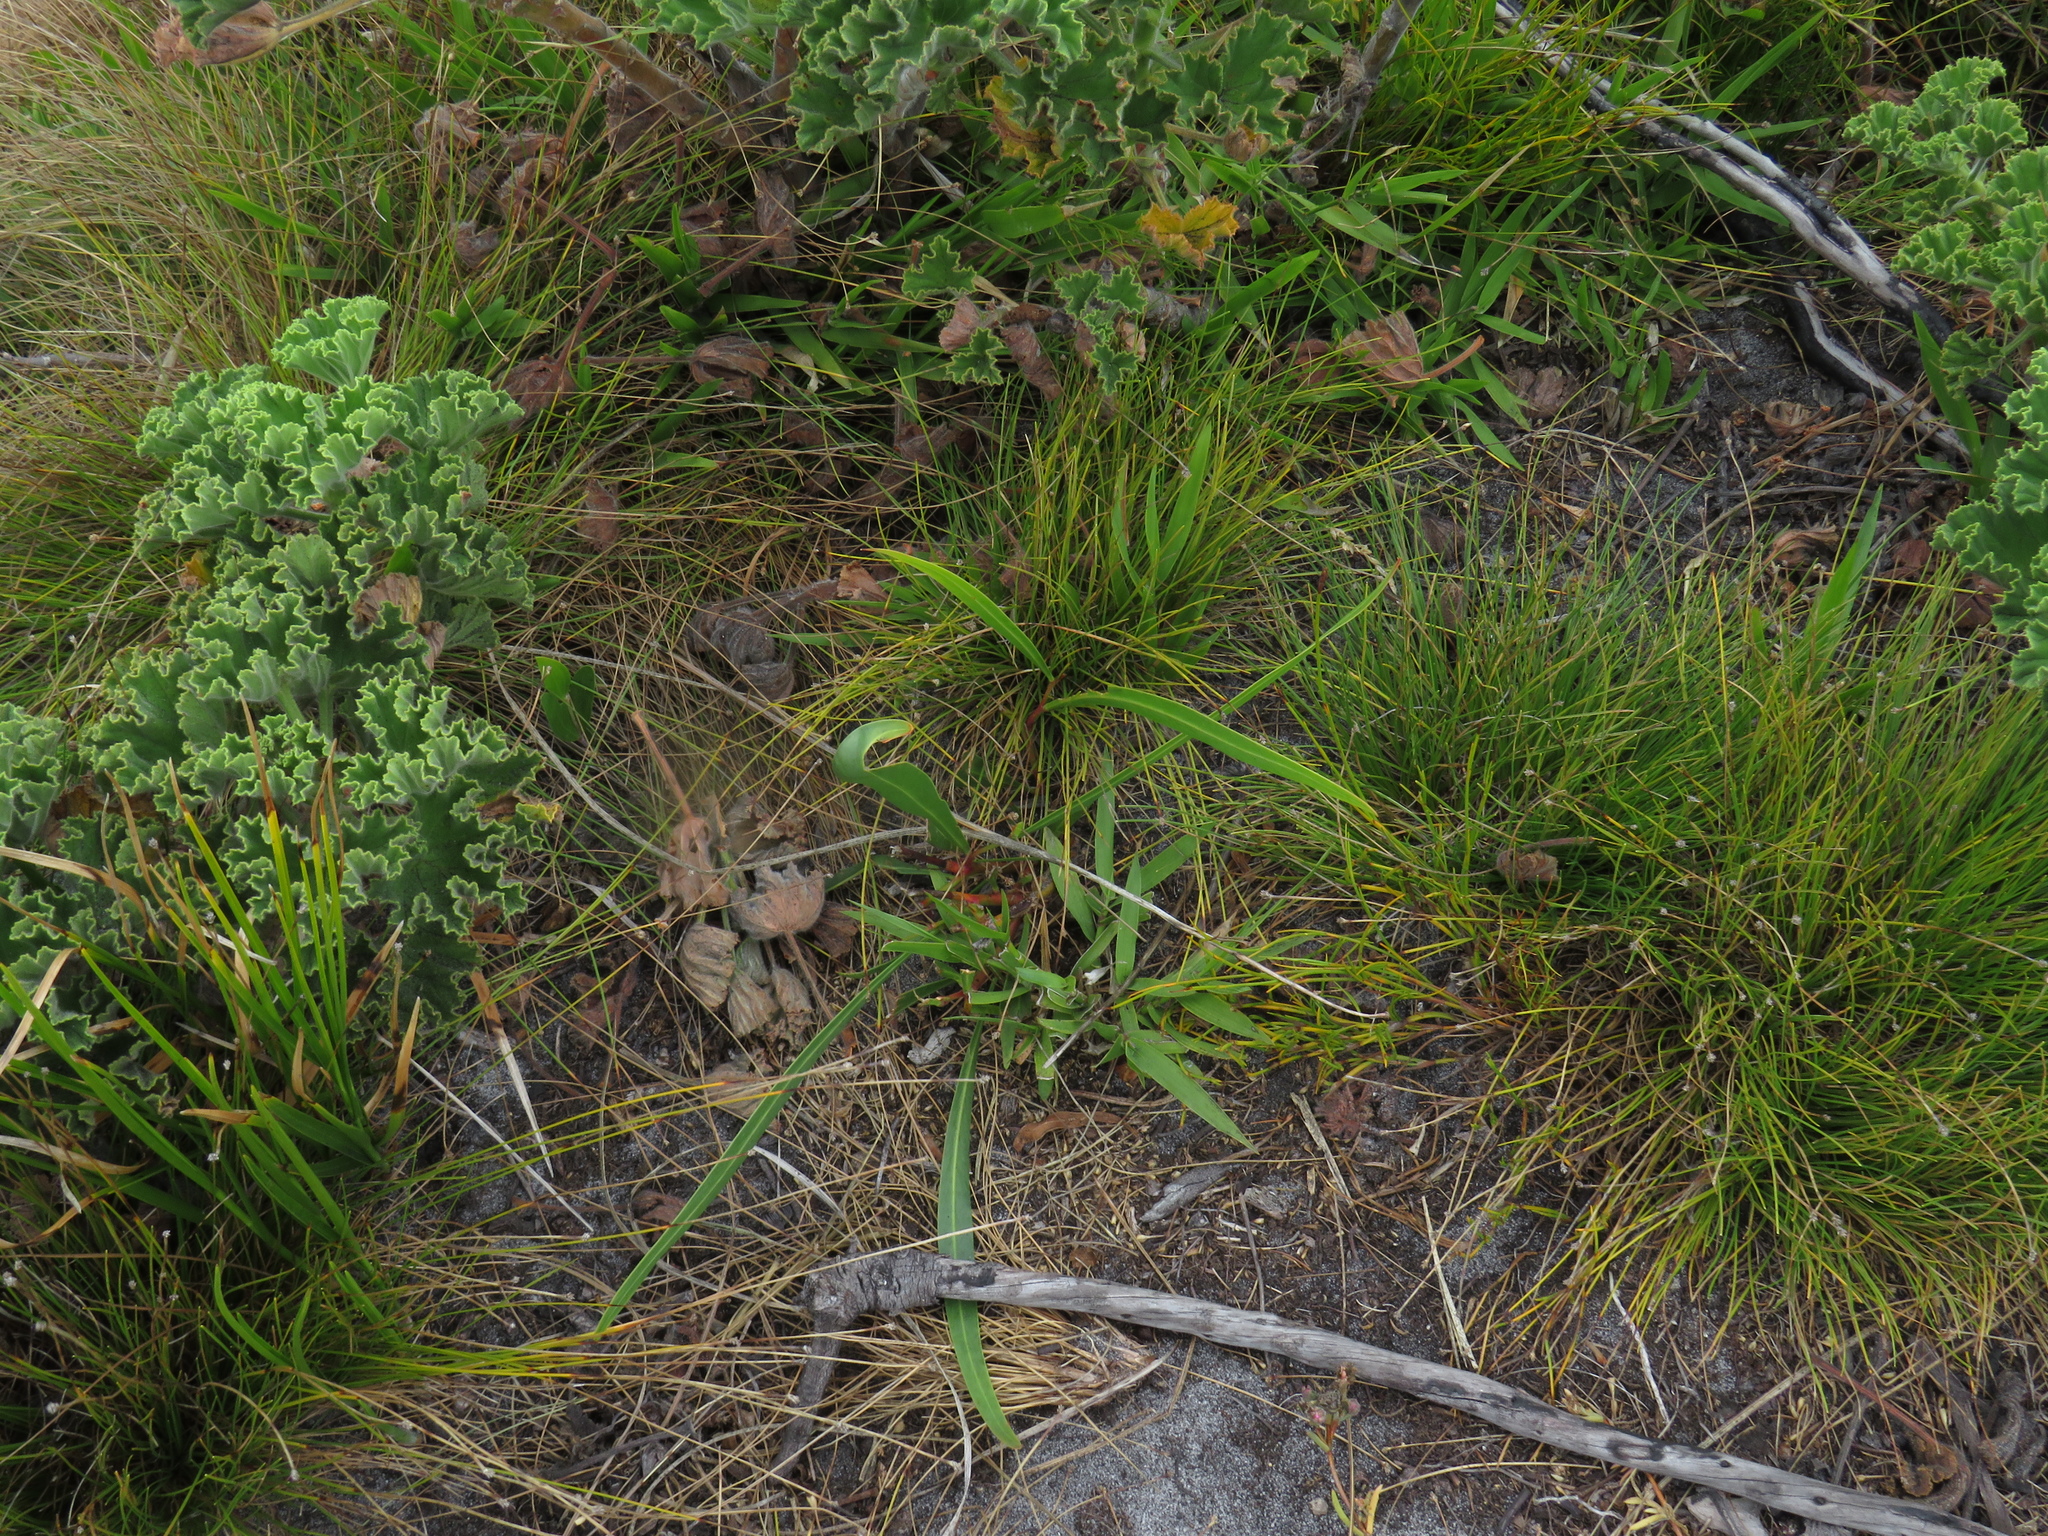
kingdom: Plantae
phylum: Tracheophyta
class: Magnoliopsida
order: Fabales
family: Fabaceae
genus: Acacia
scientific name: Acacia saligna
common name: Orange wattle
